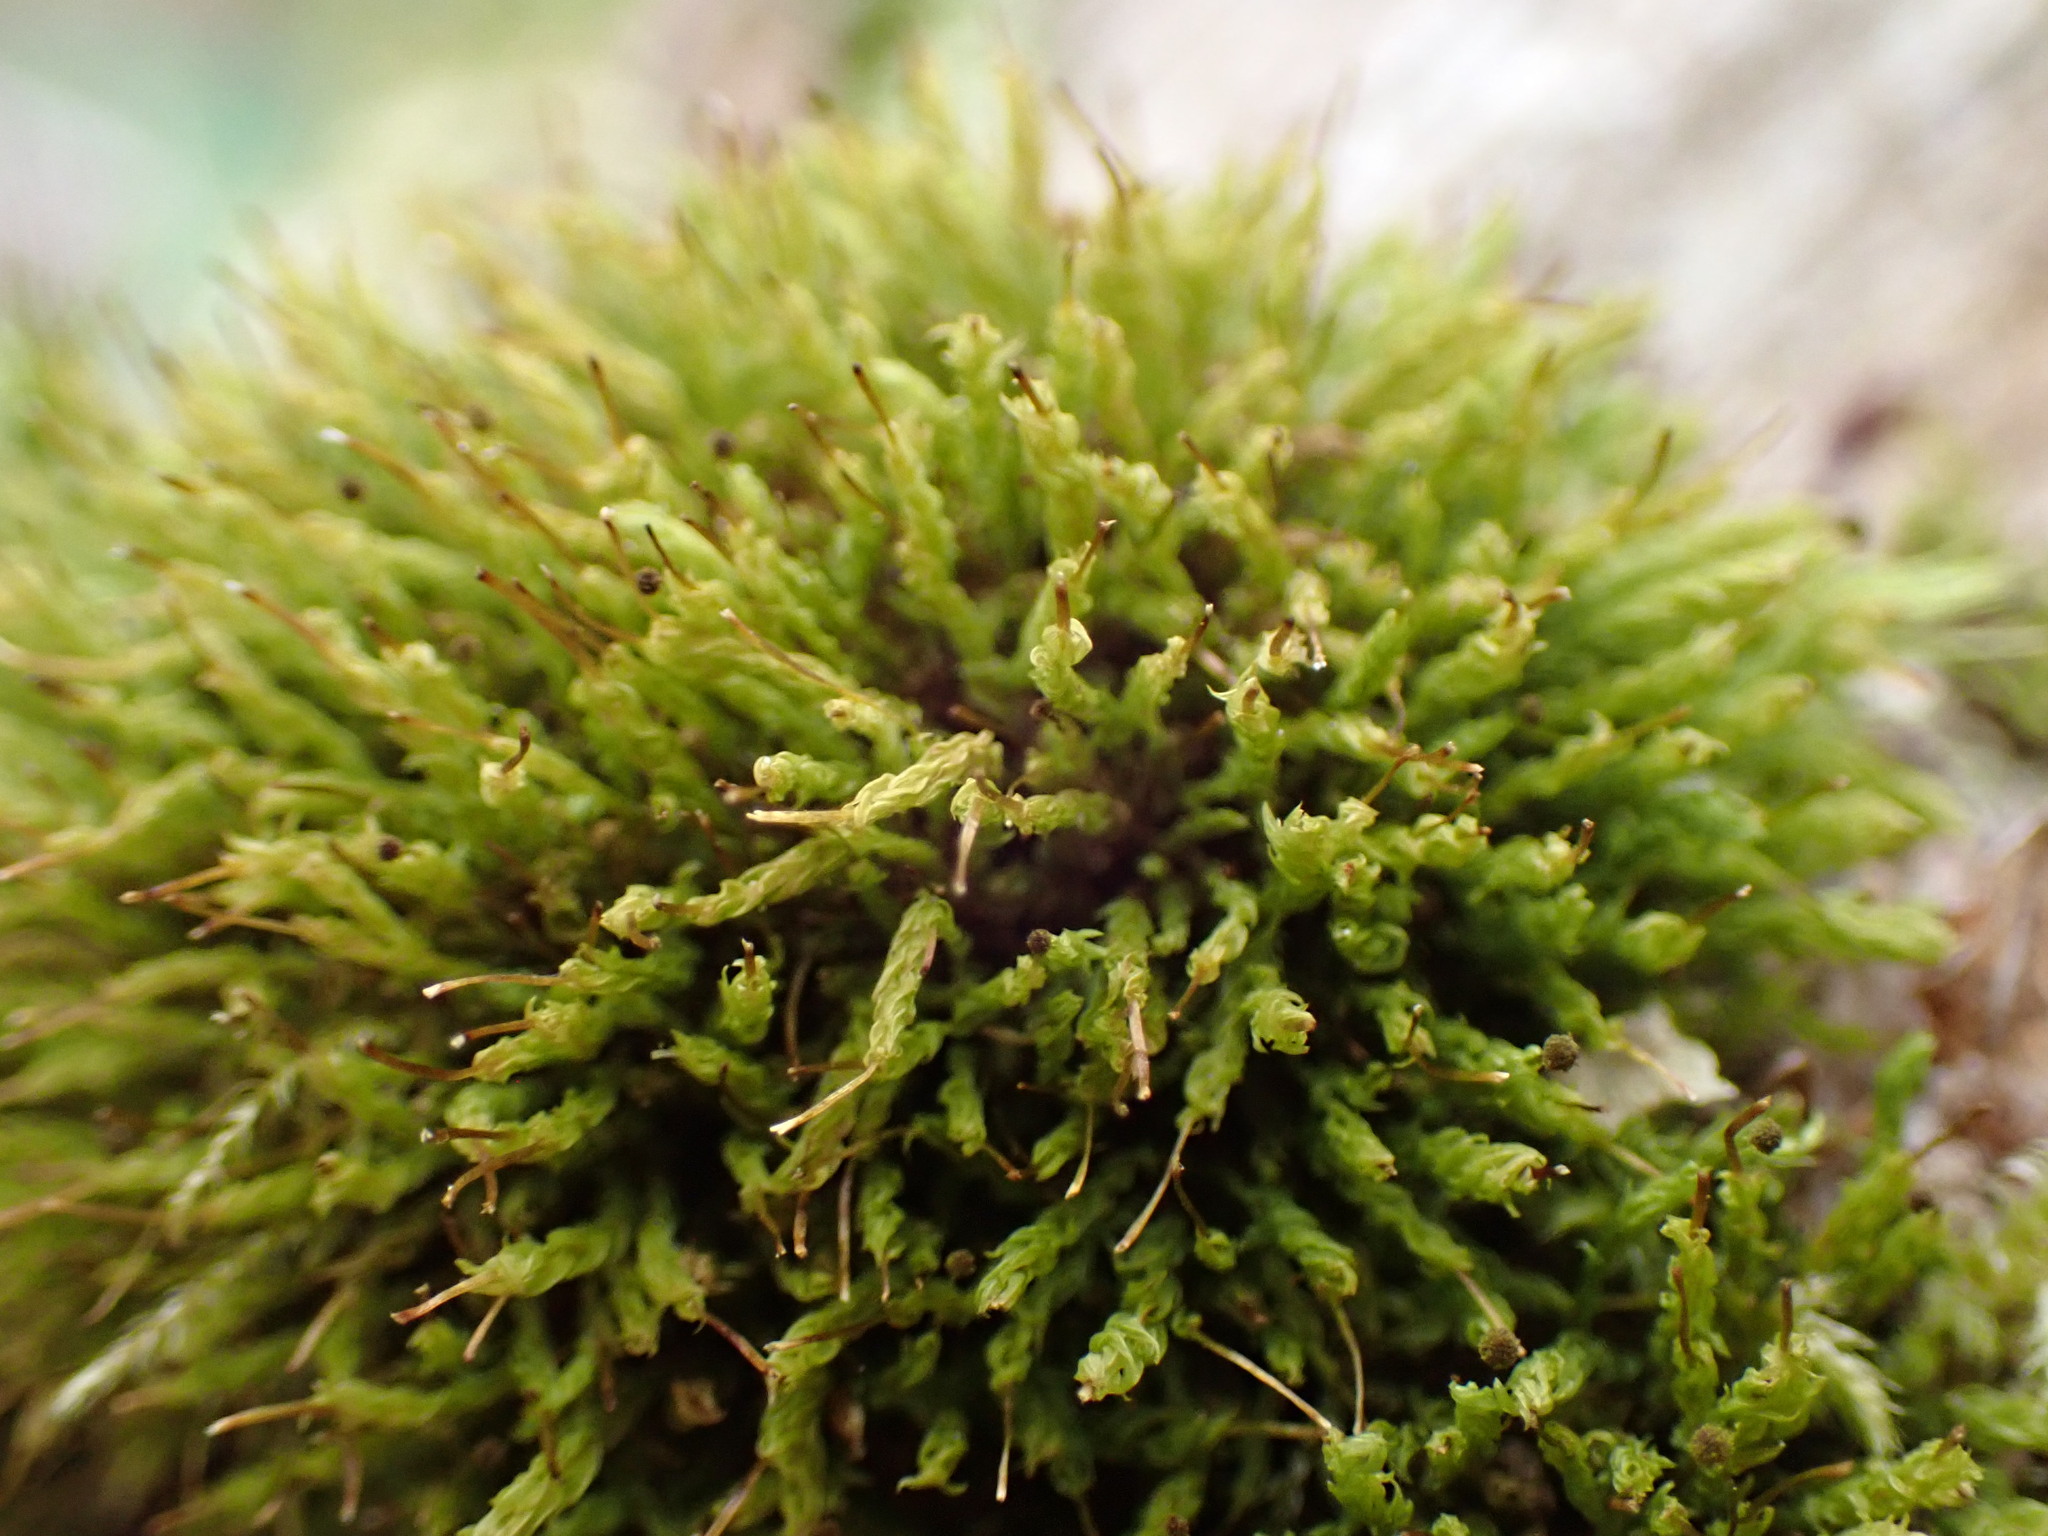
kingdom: Plantae
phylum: Bryophyta
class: Bryopsida
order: Aulacomniales
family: Aulacomniaceae
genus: Aulacomnium
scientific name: Aulacomnium androgynum
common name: Little groove moss
